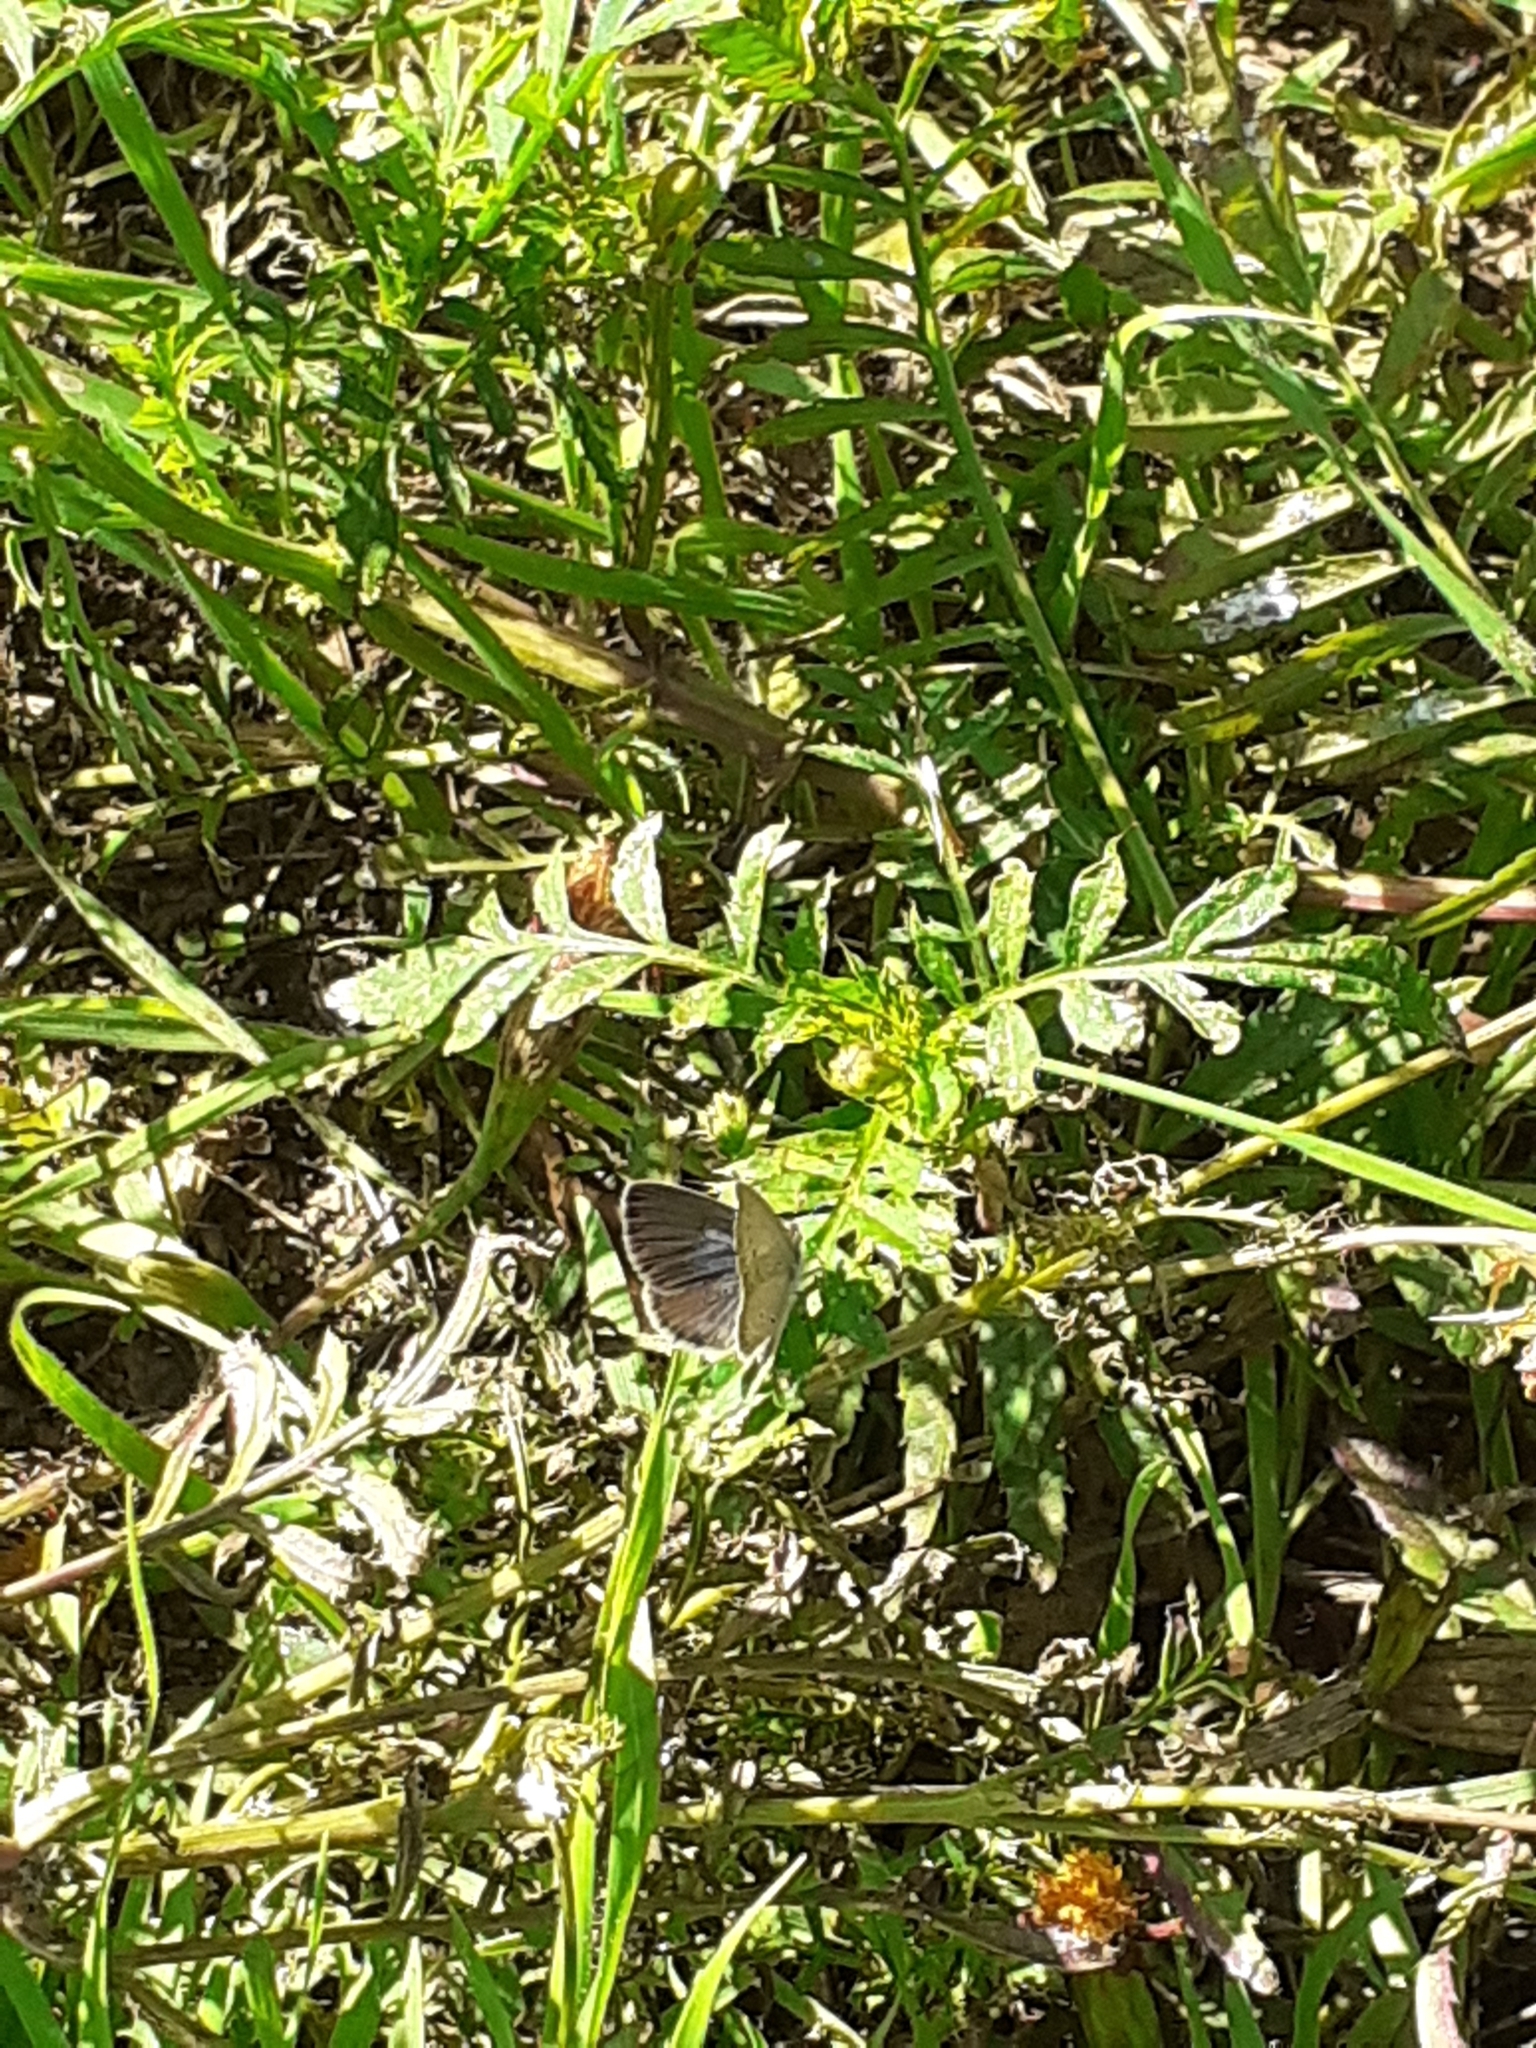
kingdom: Animalia
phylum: Arthropoda
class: Insecta
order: Lepidoptera
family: Lycaenidae
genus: Zizeeria
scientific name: Zizeeria knysna
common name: African grass blue
